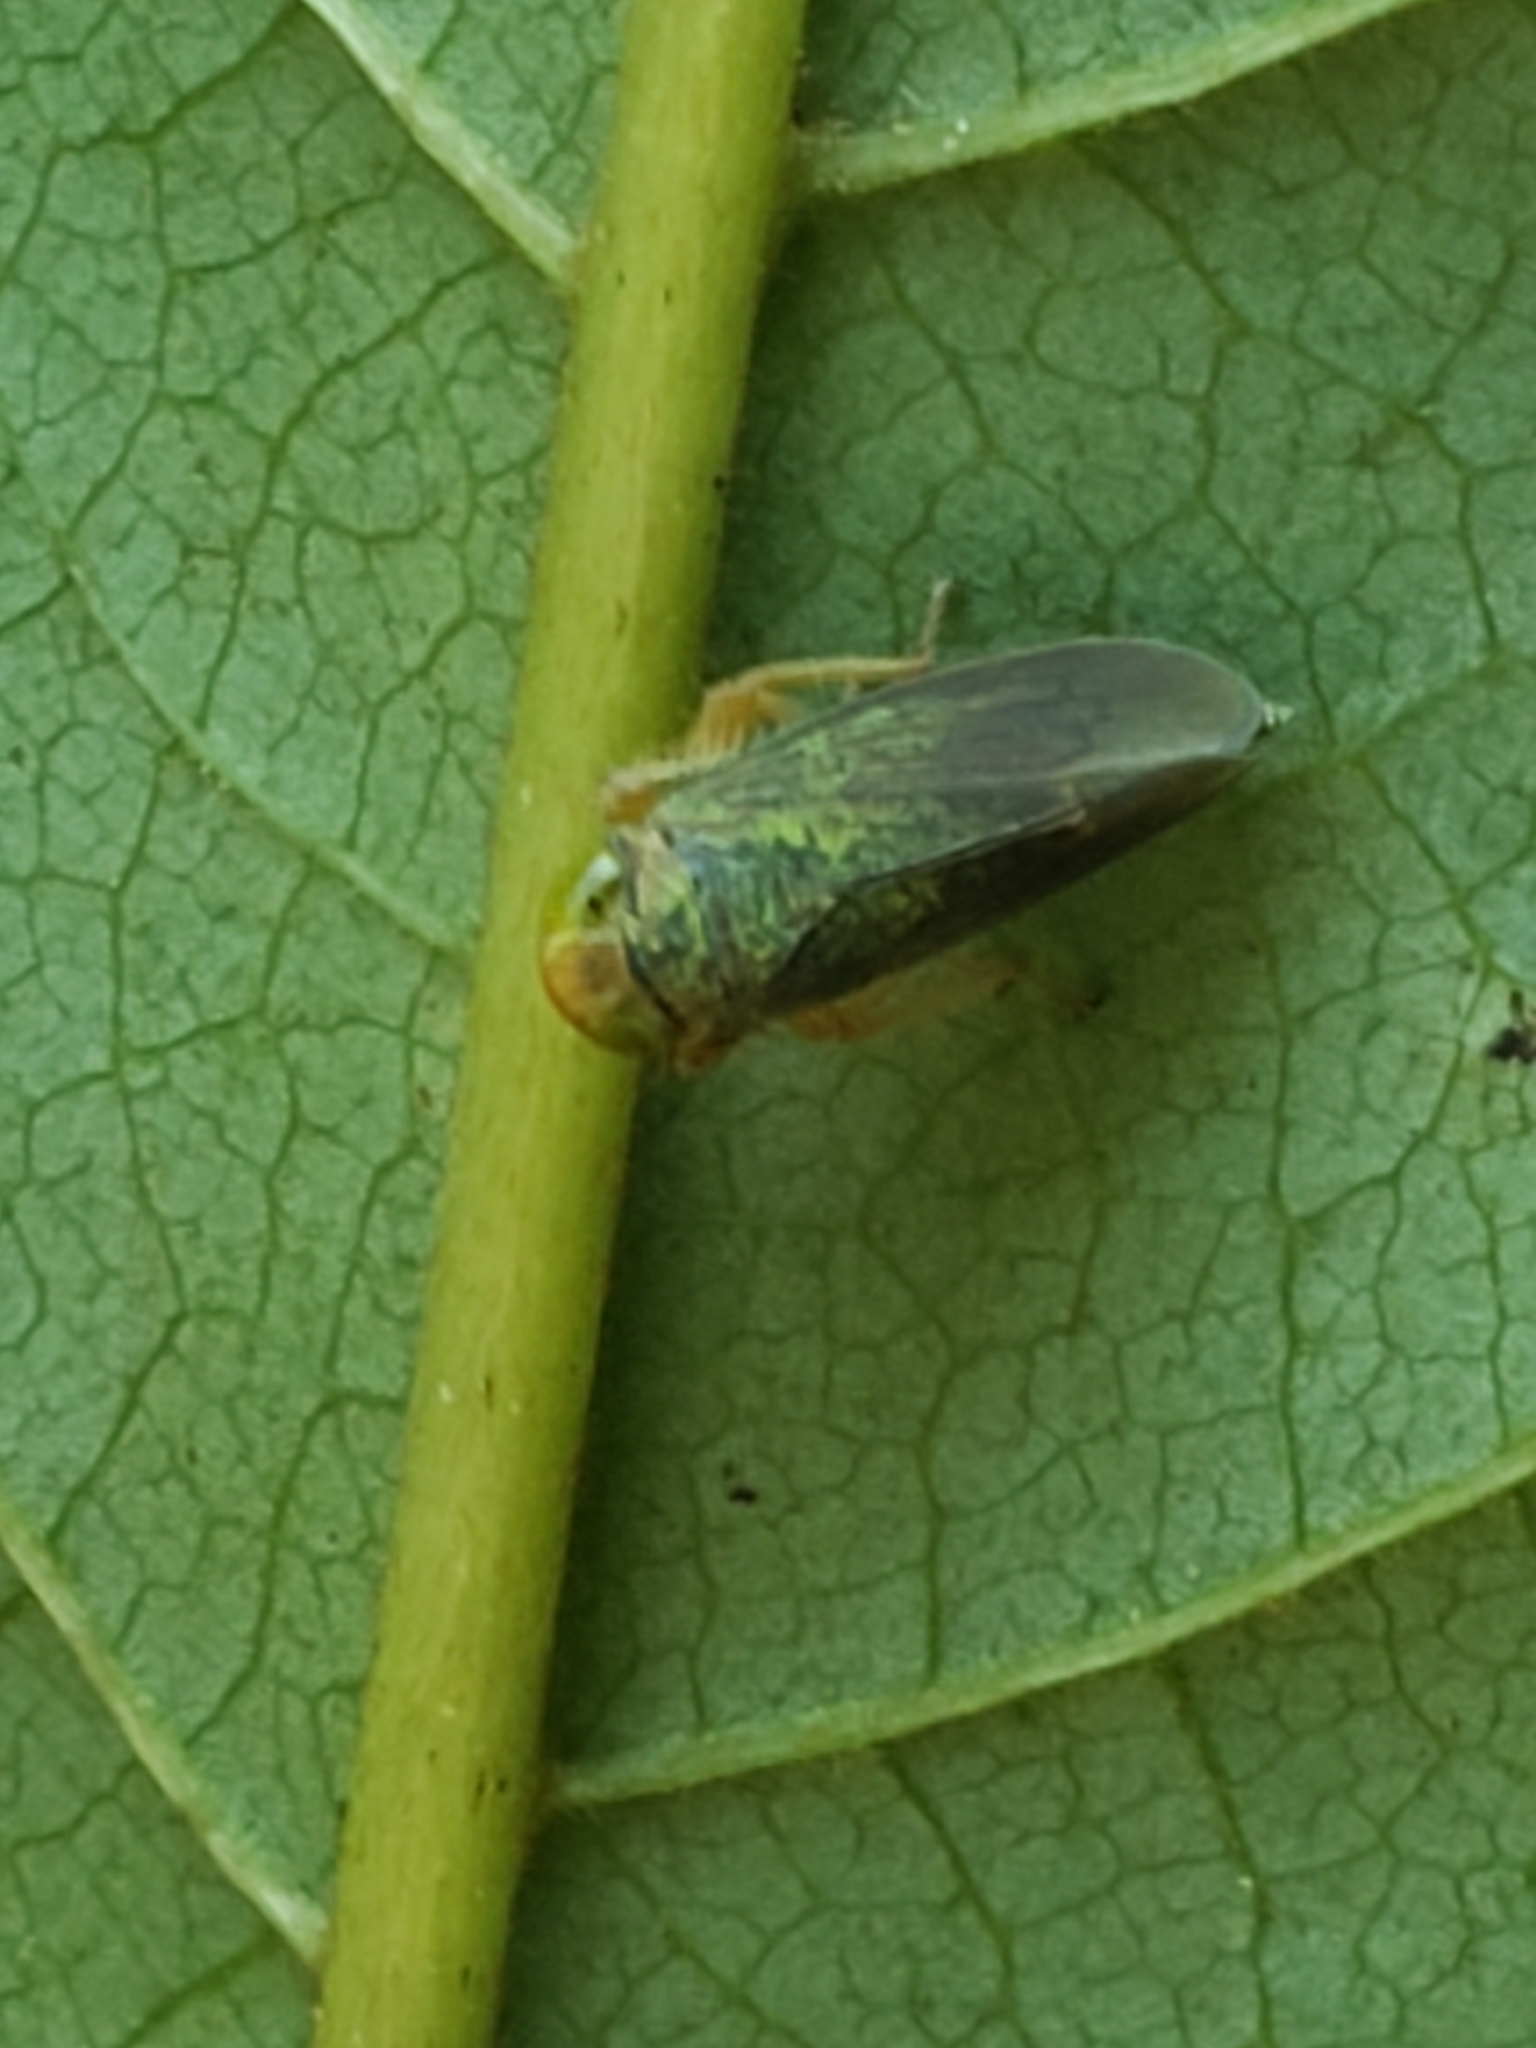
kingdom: Animalia
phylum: Arthropoda
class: Insecta
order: Hemiptera
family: Cicadellidae
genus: Jikradia
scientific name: Jikradia olitoria
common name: Coppery leafhopper
